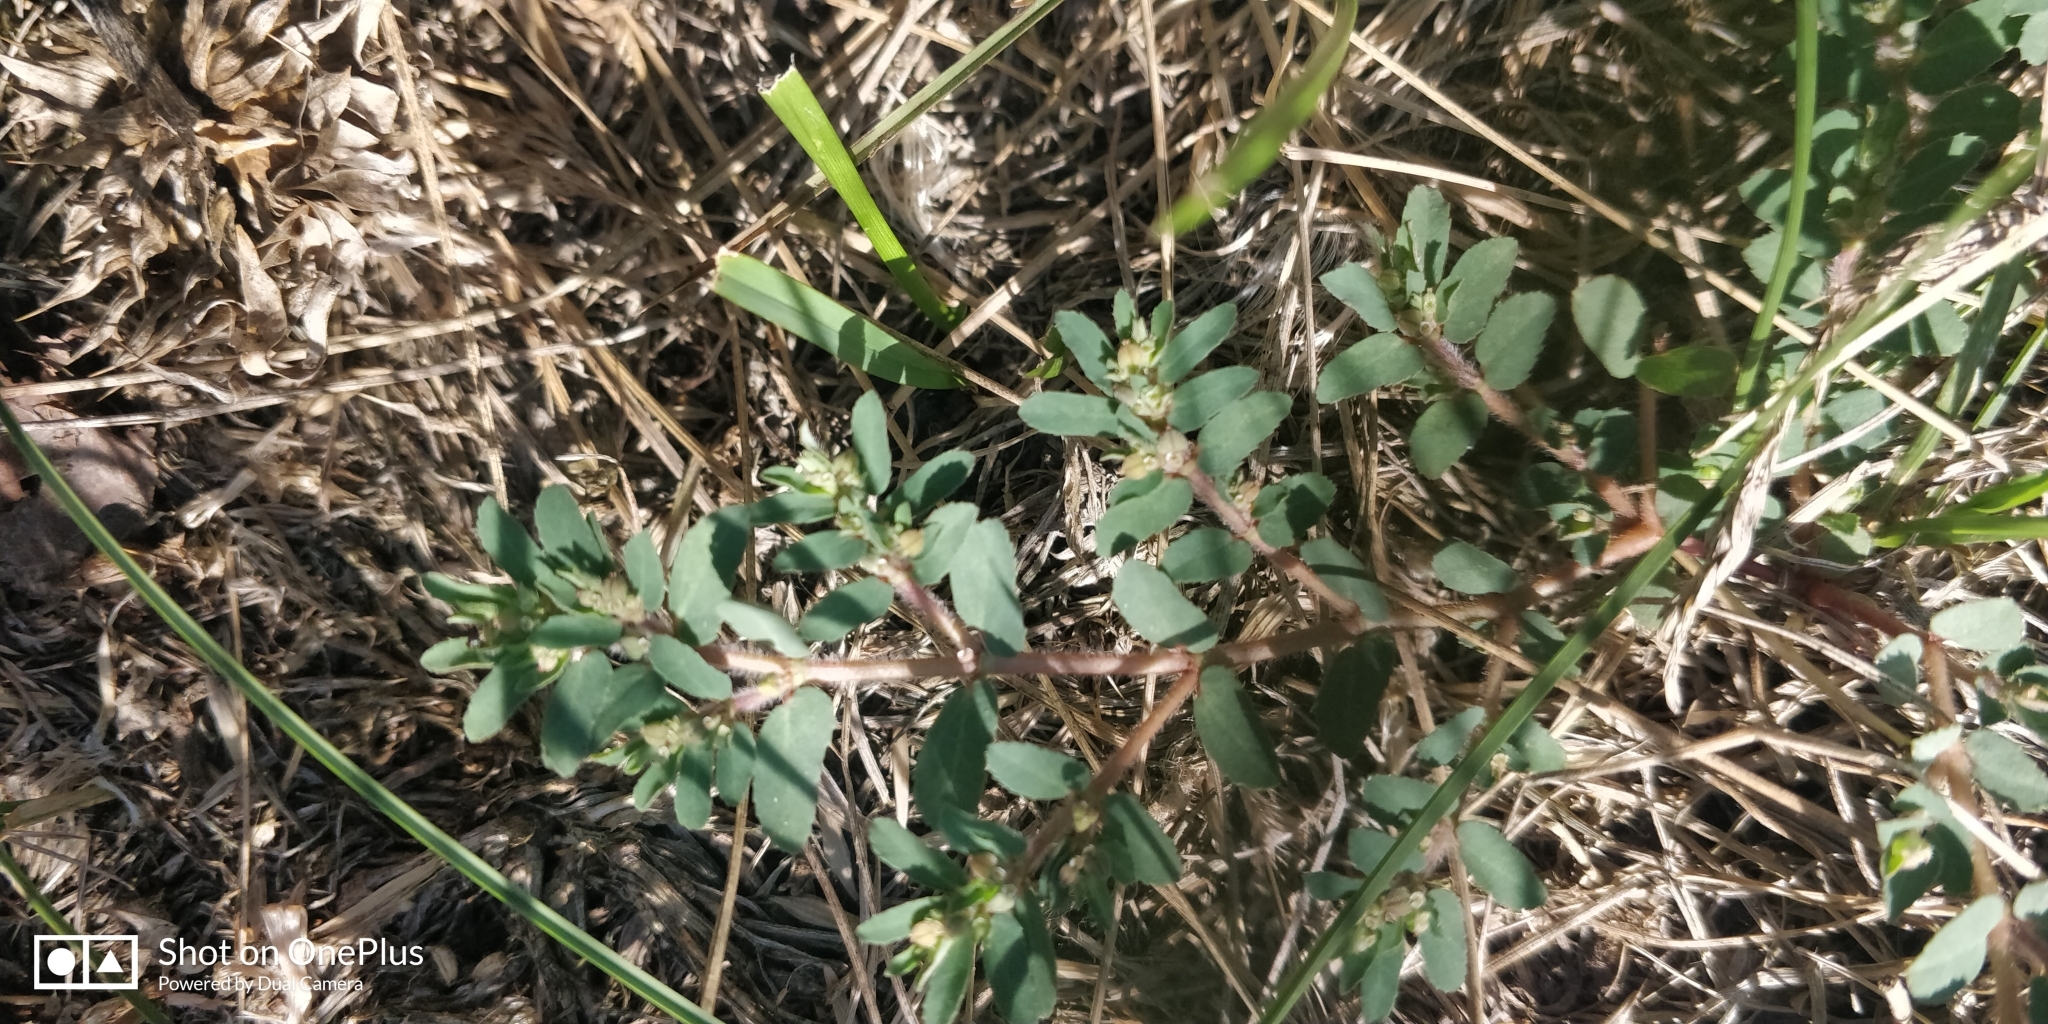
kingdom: Plantae
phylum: Tracheophyta
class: Magnoliopsida
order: Malpighiales
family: Euphorbiaceae
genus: Euphorbia
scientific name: Euphorbia maculata
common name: Spotted spurge
